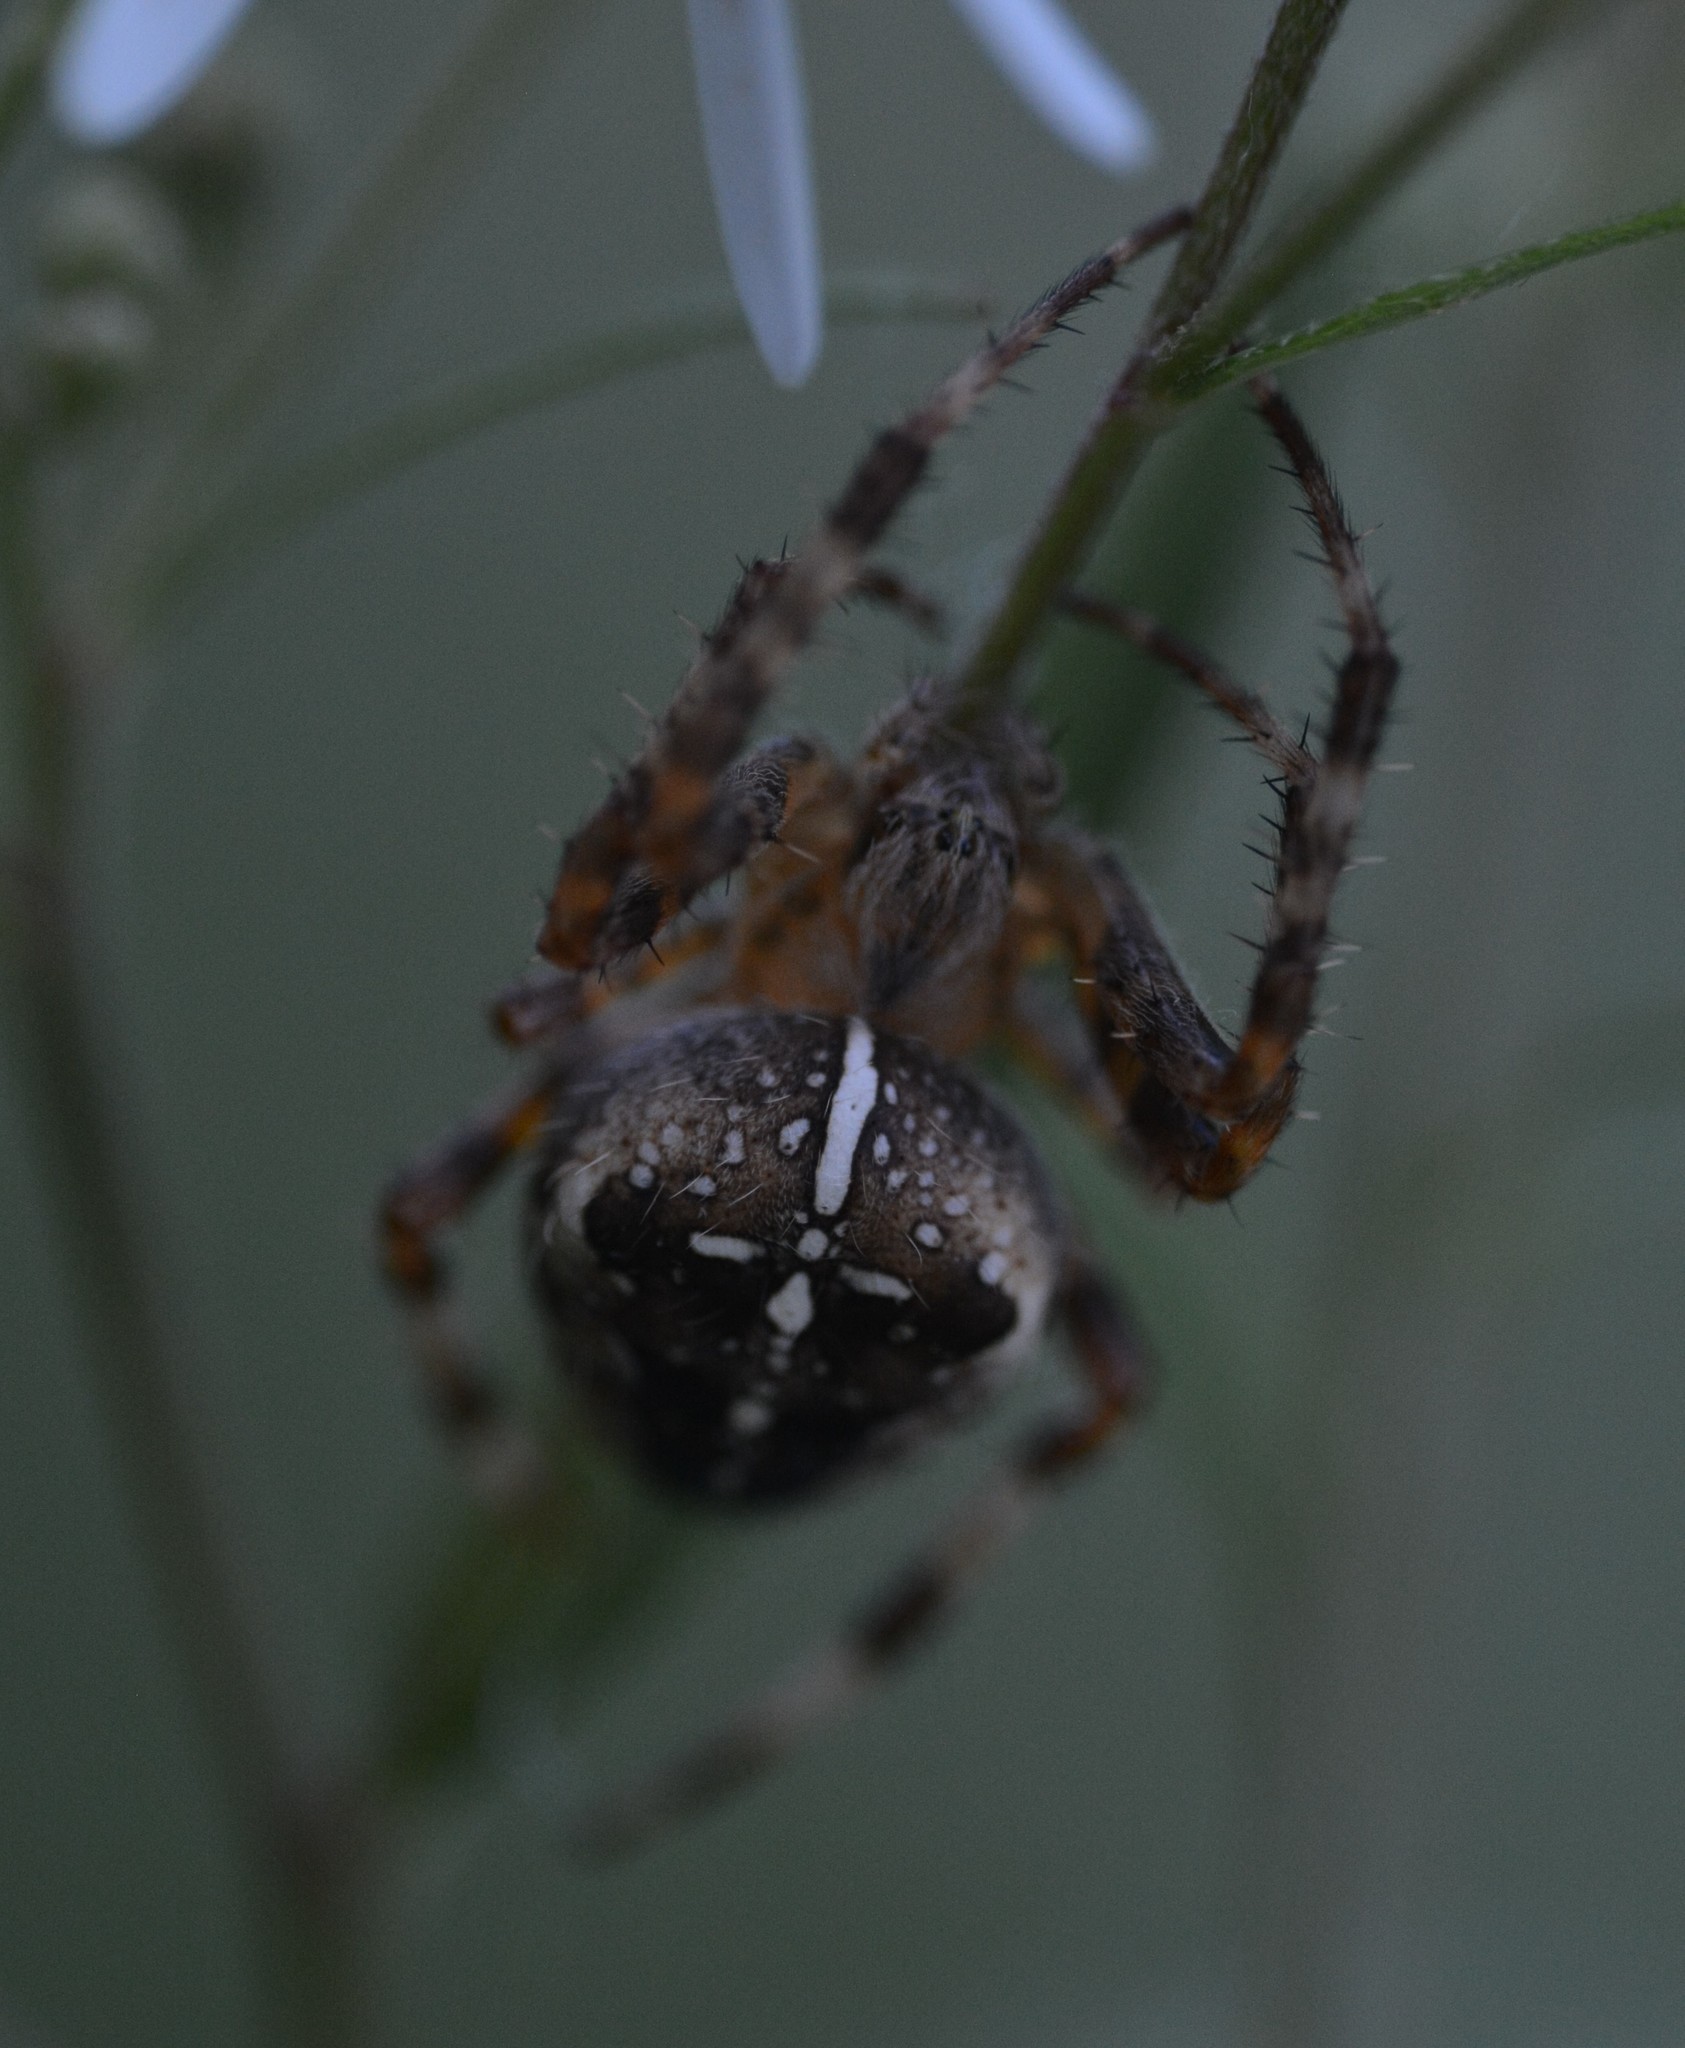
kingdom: Animalia
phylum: Arthropoda
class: Arachnida
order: Araneae
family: Araneidae
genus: Araneus
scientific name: Araneus diadematus
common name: Cross orbweaver
